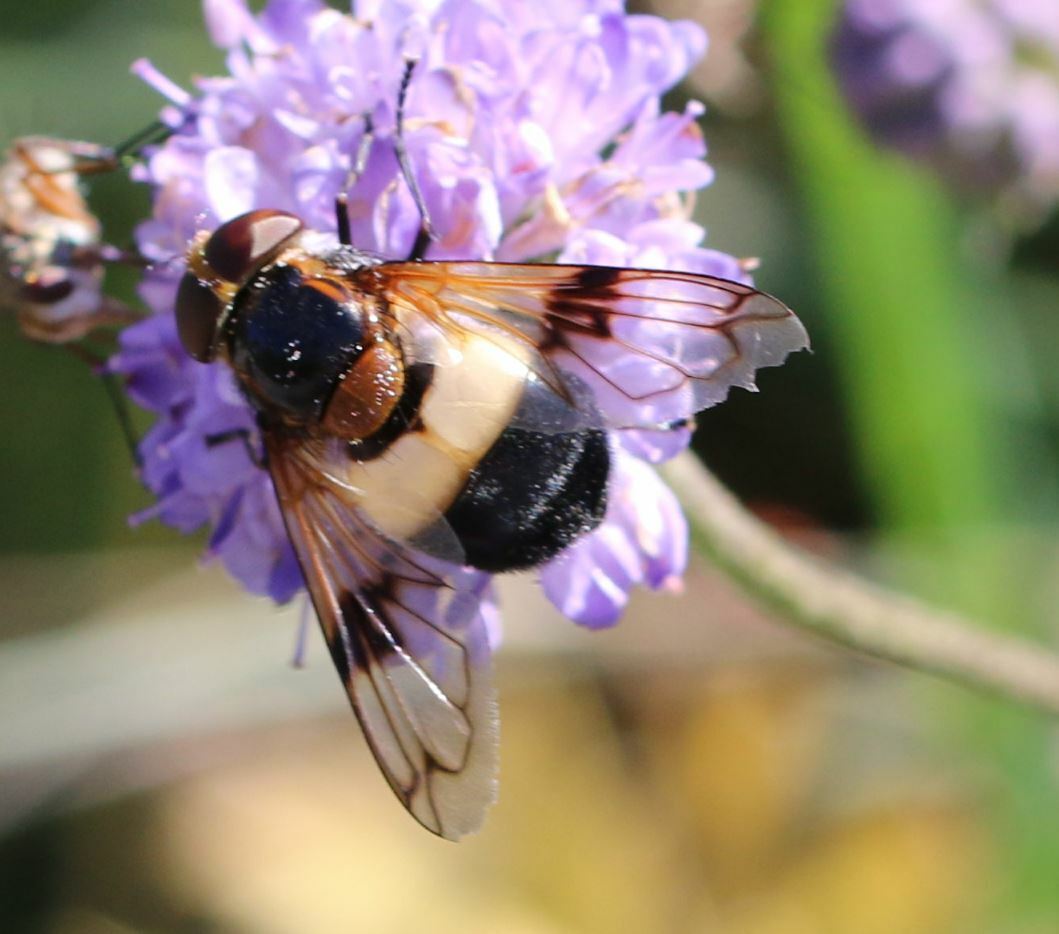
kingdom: Animalia
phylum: Arthropoda
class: Insecta
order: Diptera
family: Syrphidae
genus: Volucella
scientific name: Volucella pellucens
